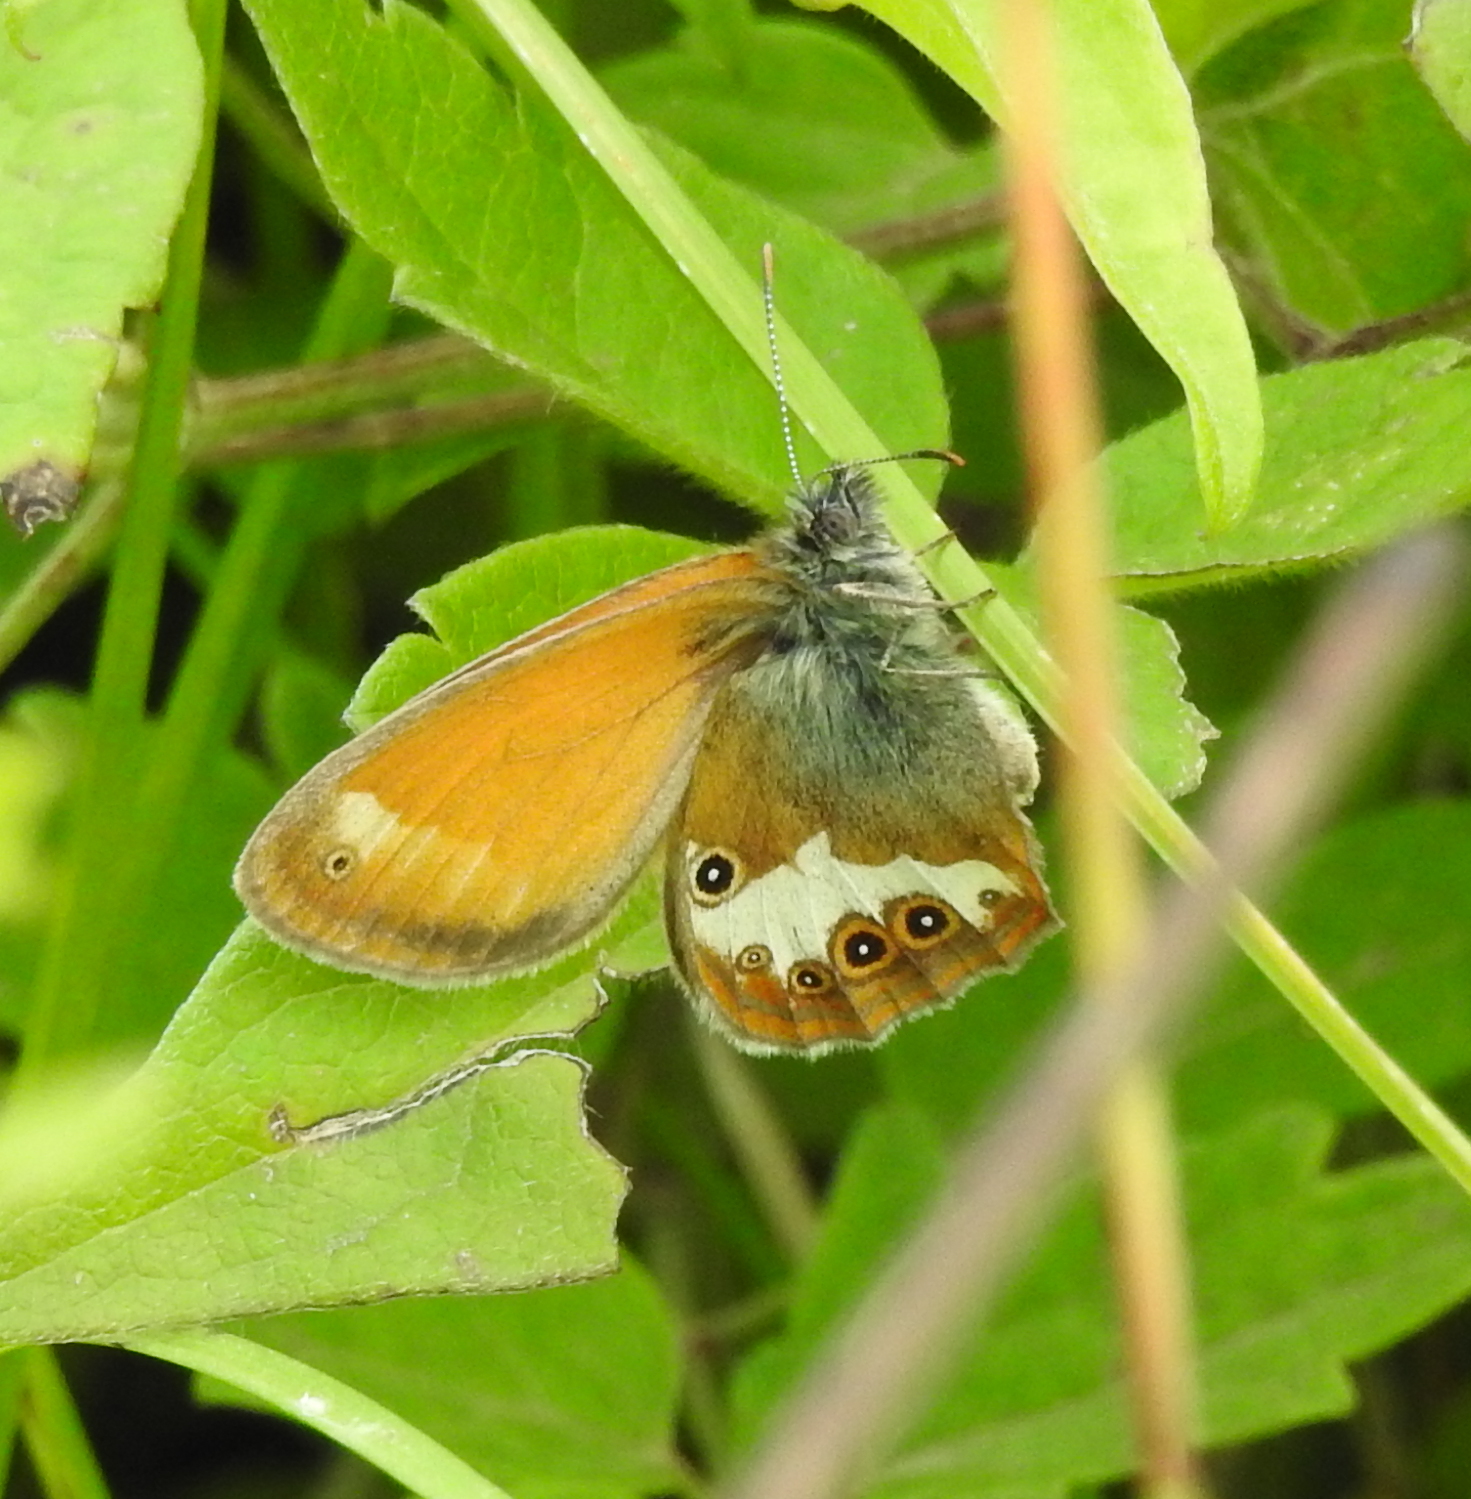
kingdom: Animalia
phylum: Arthropoda
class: Insecta
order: Lepidoptera
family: Nymphalidae
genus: Coenonympha
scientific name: Coenonympha arcania
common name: Pearly heath
